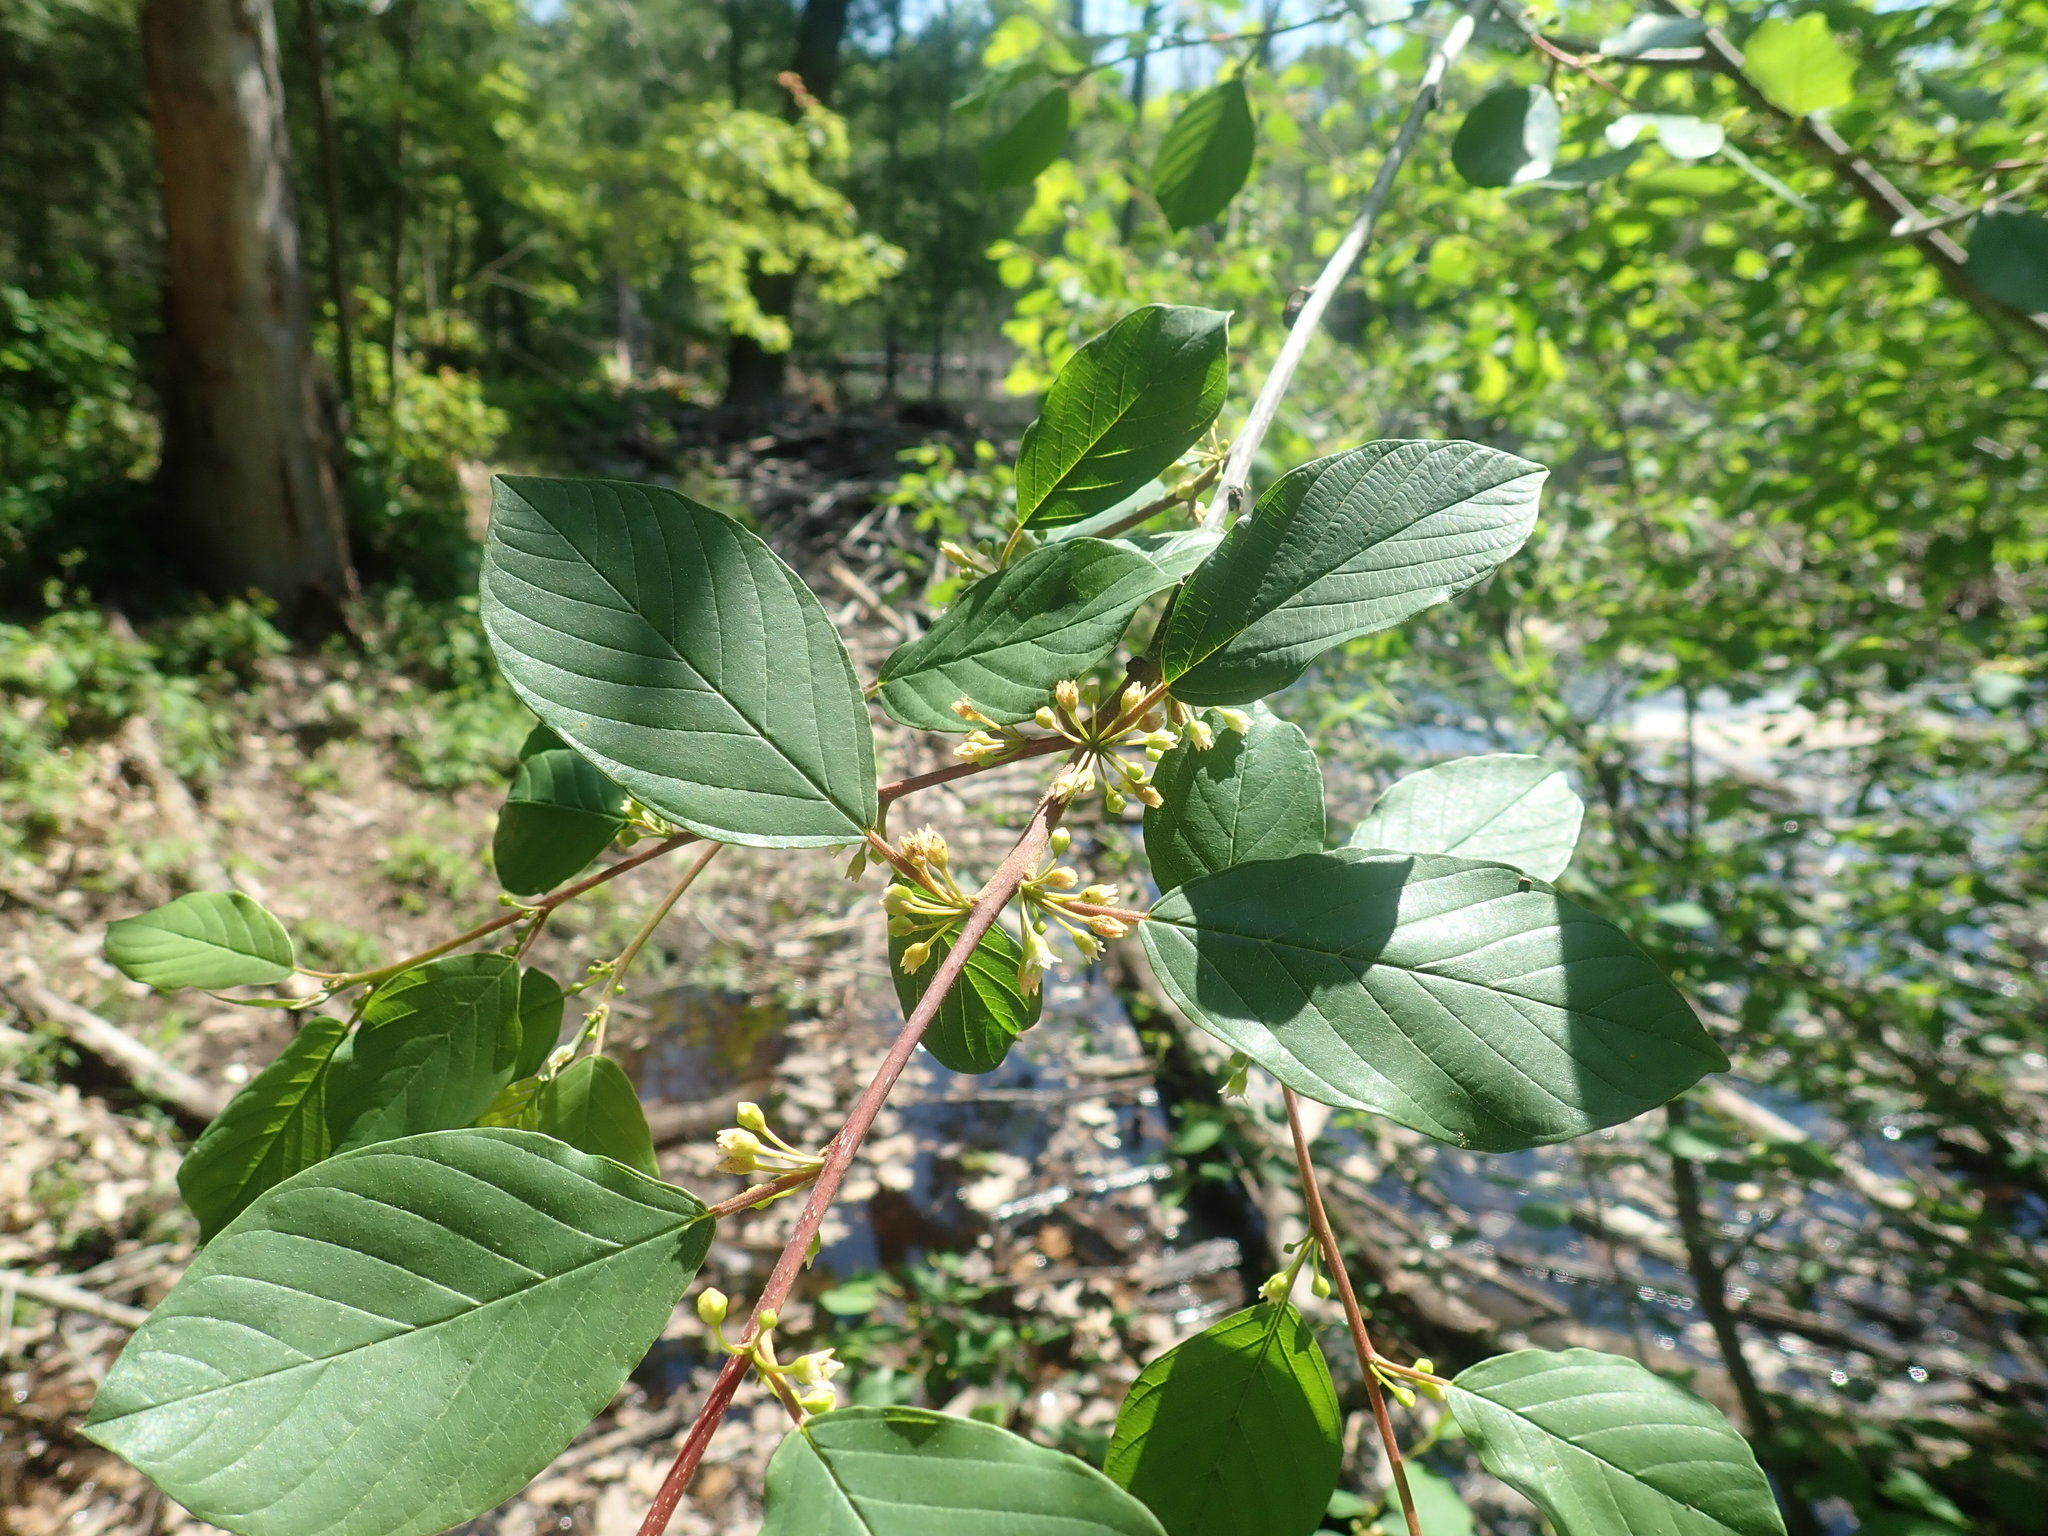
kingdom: Plantae
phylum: Tracheophyta
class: Magnoliopsida
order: Rosales
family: Rhamnaceae
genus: Frangula
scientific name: Frangula alnus
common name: Alder buckthorn
